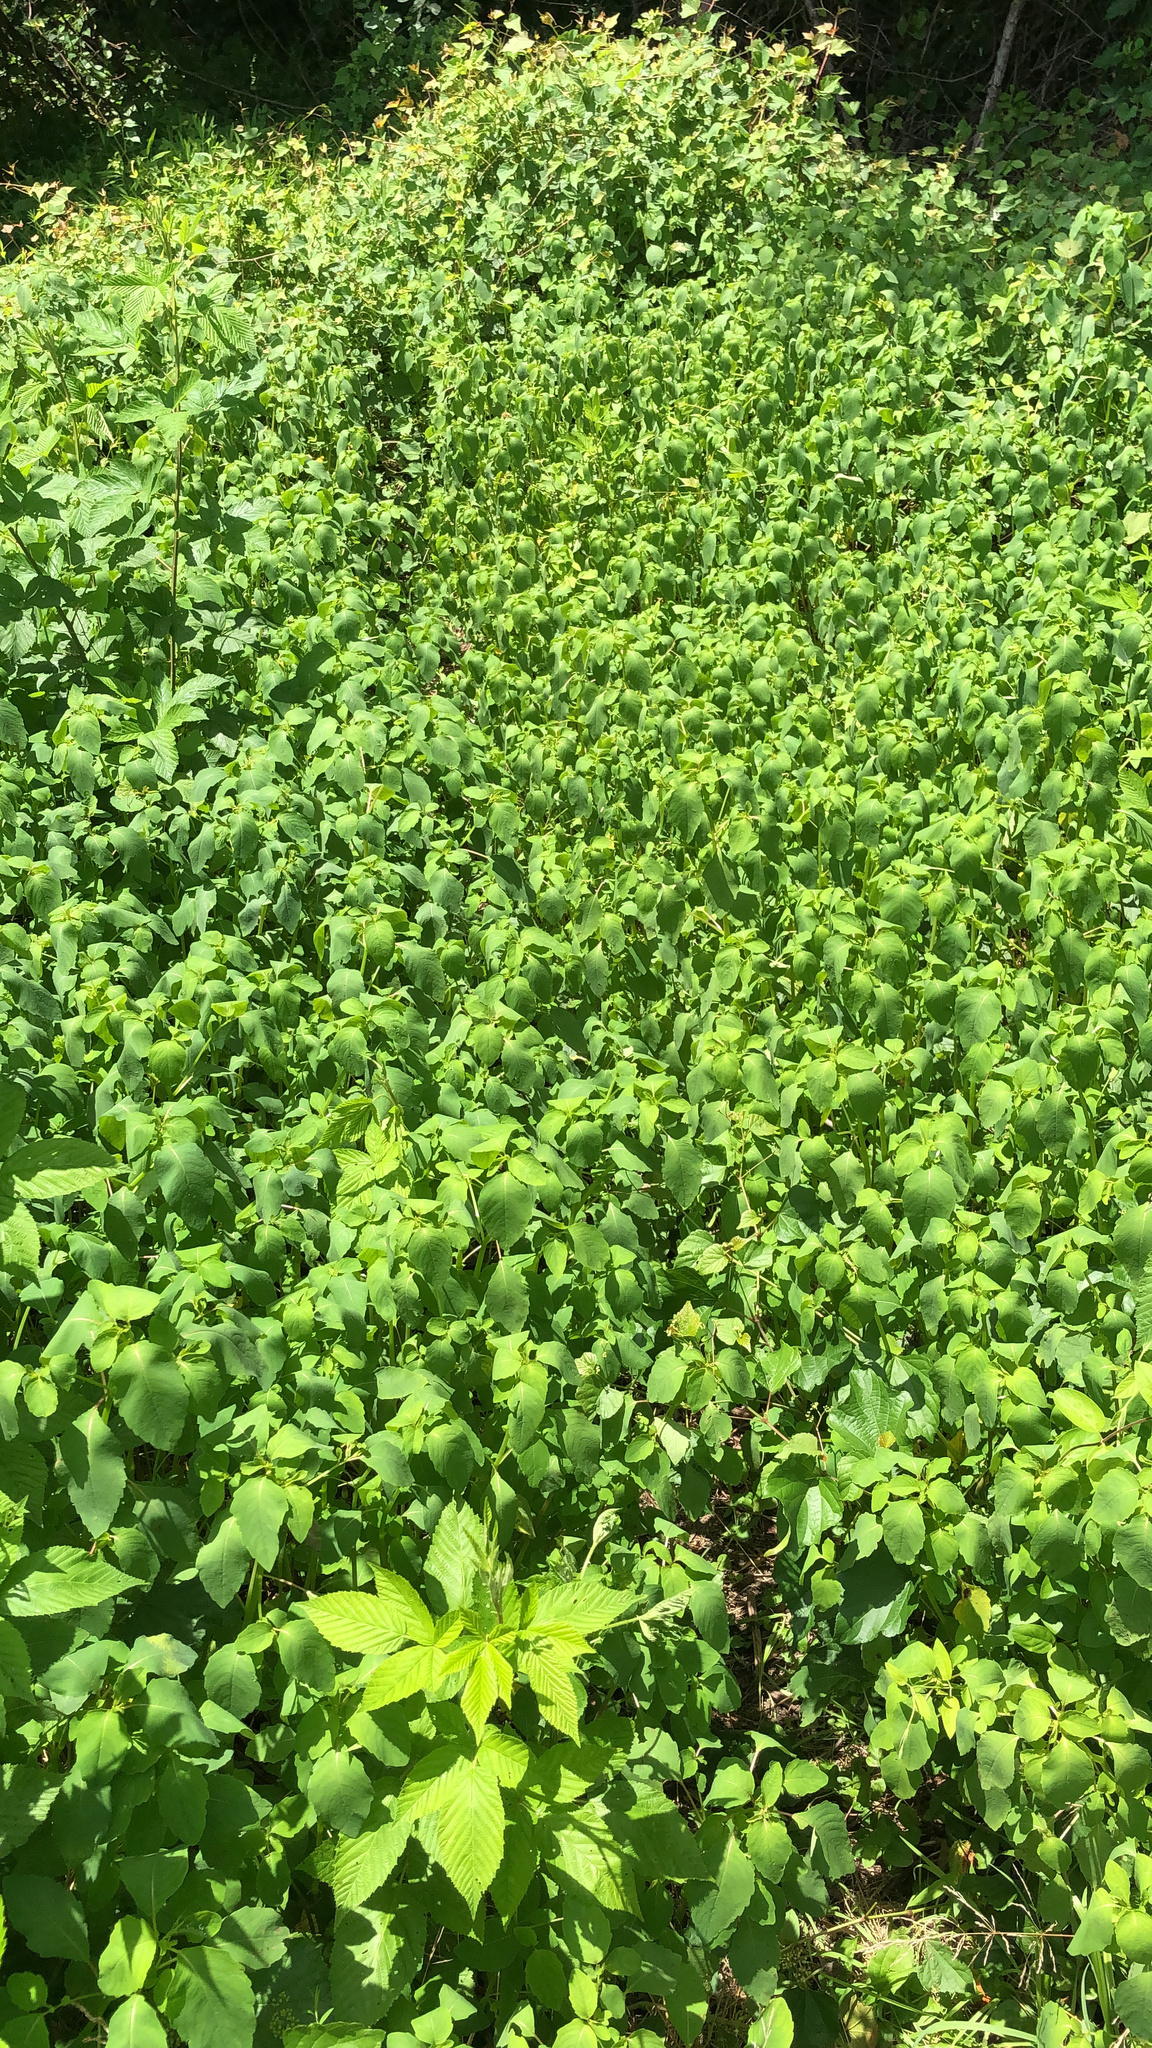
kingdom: Plantae
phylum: Tracheophyta
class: Magnoliopsida
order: Caryophyllales
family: Polygonaceae
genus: Persicaria
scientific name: Persicaria perfoliata
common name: Asiatic tearthumb
